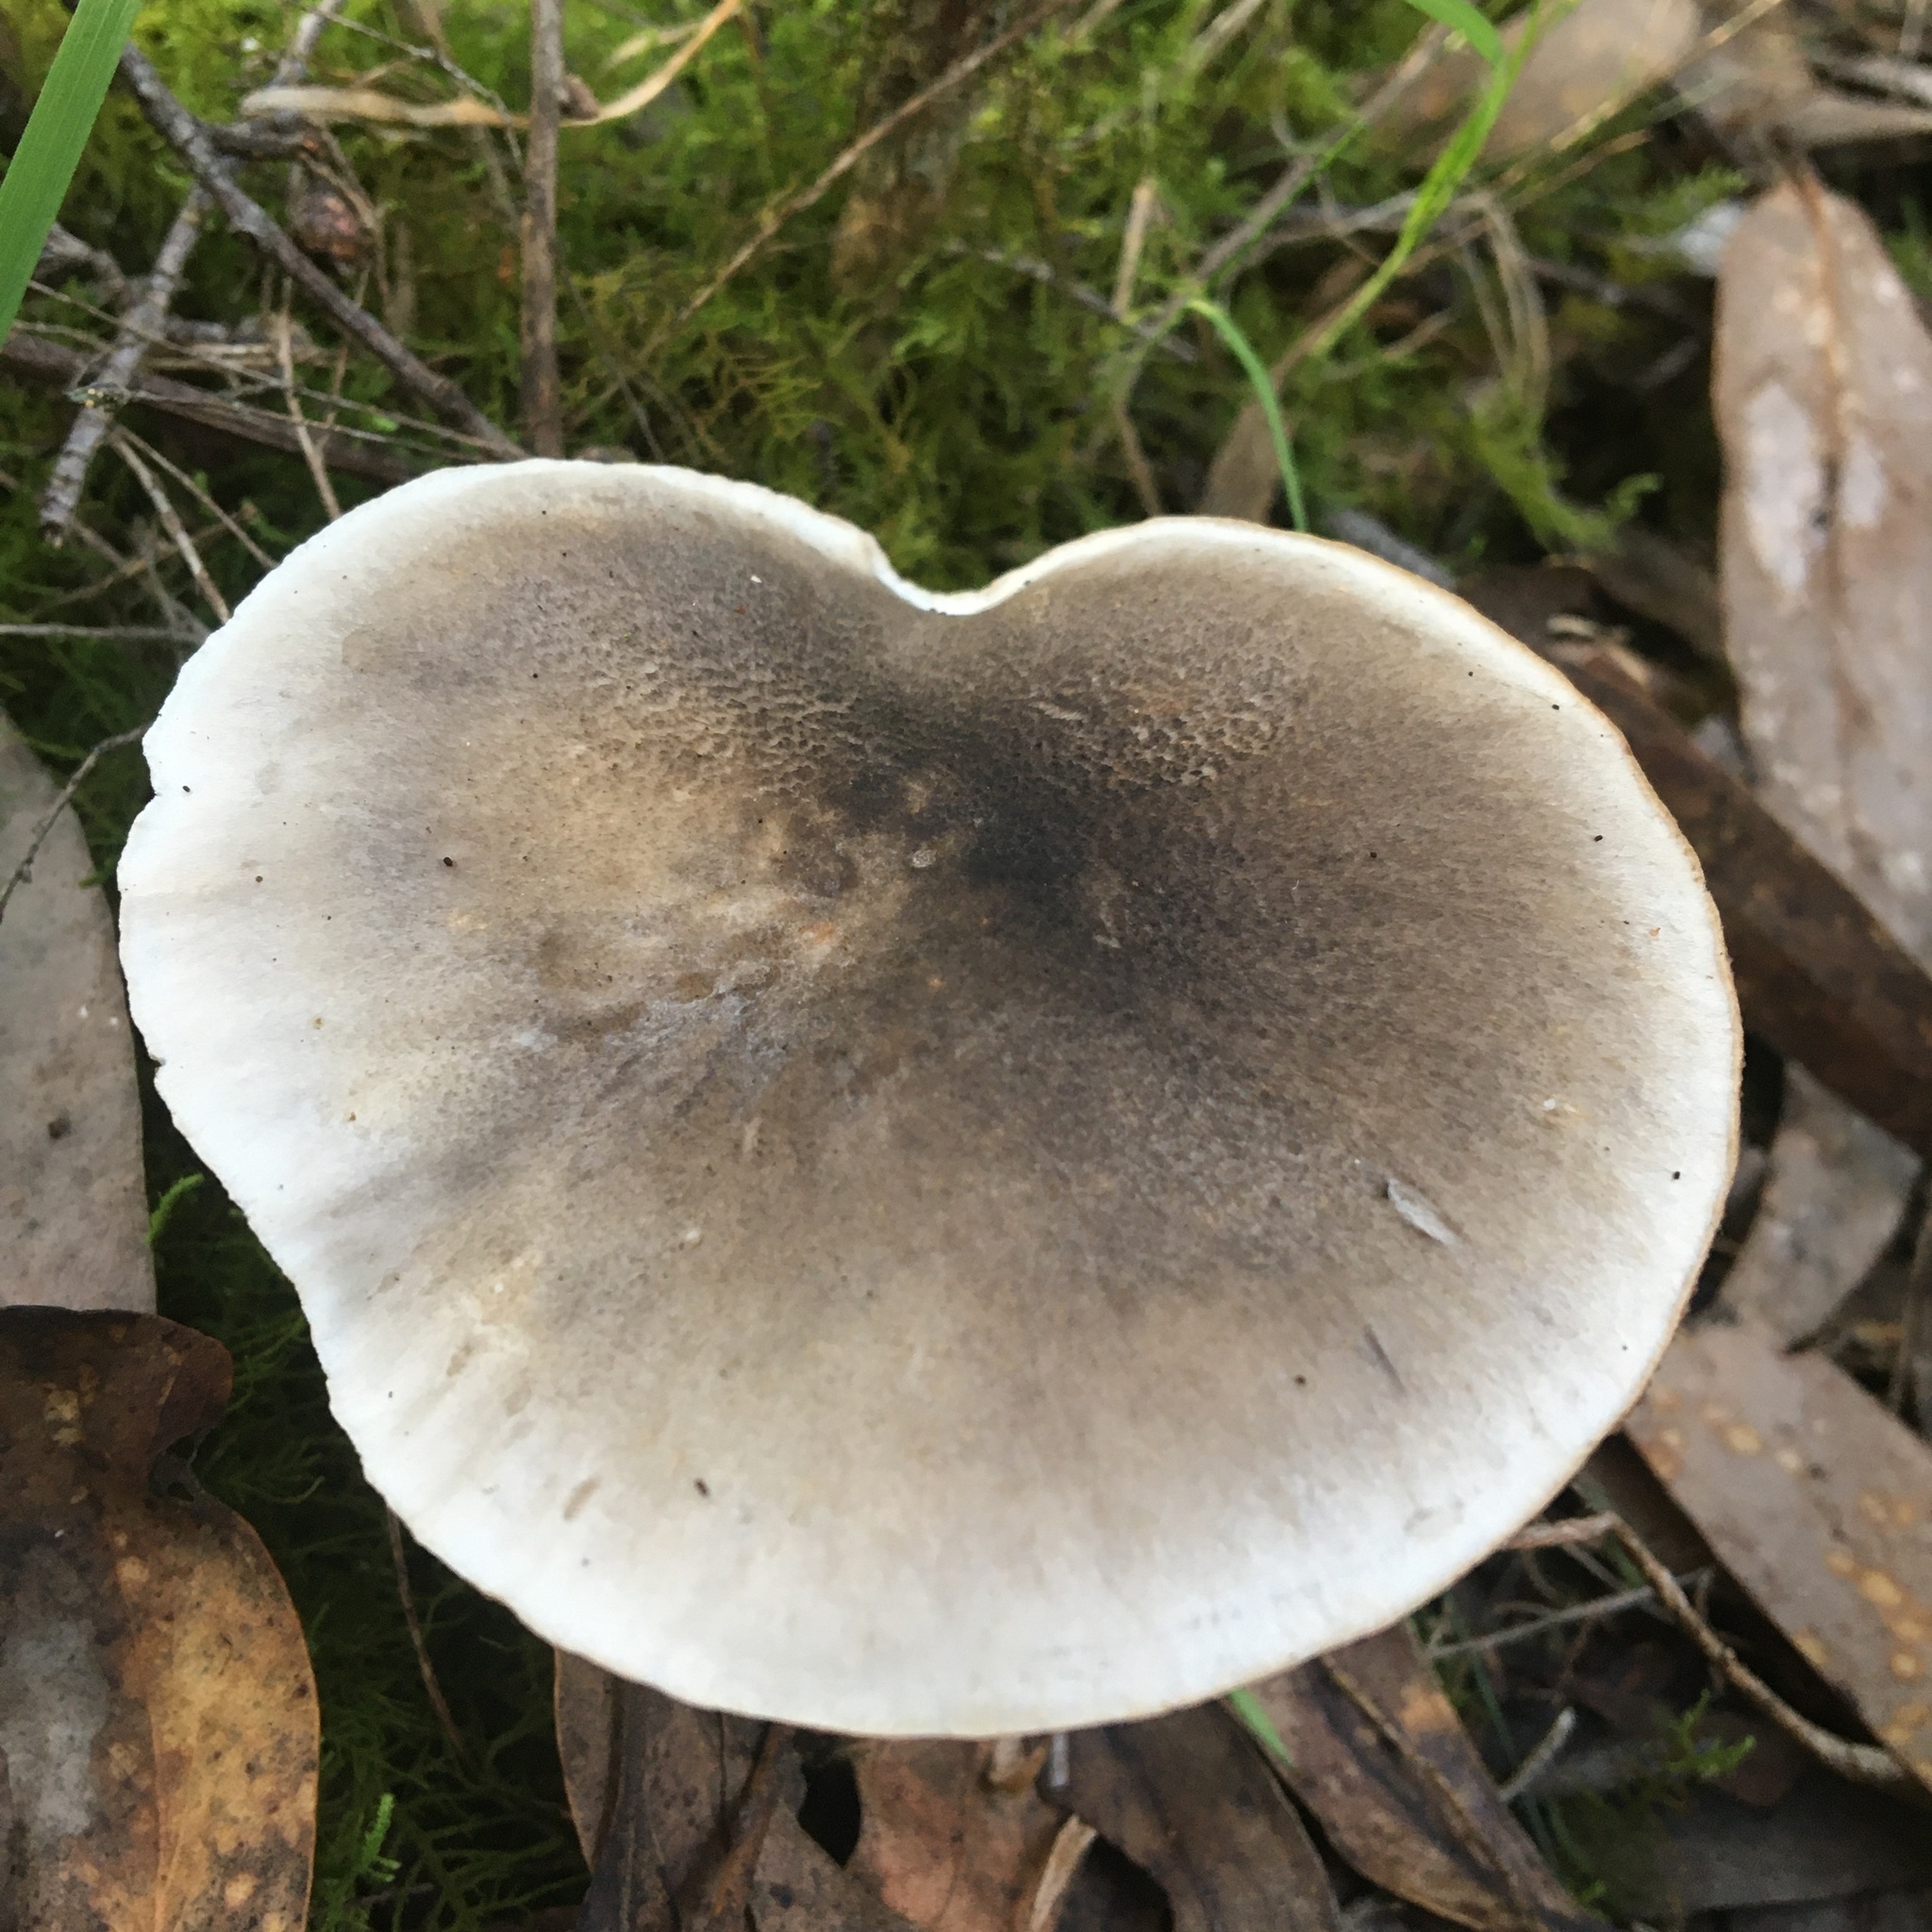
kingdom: Fungi
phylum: Basidiomycota
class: Agaricomycetes
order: Agaricales
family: Tricholomataceae
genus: Tricholoma
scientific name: Tricholoma terreum
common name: Grey knight
